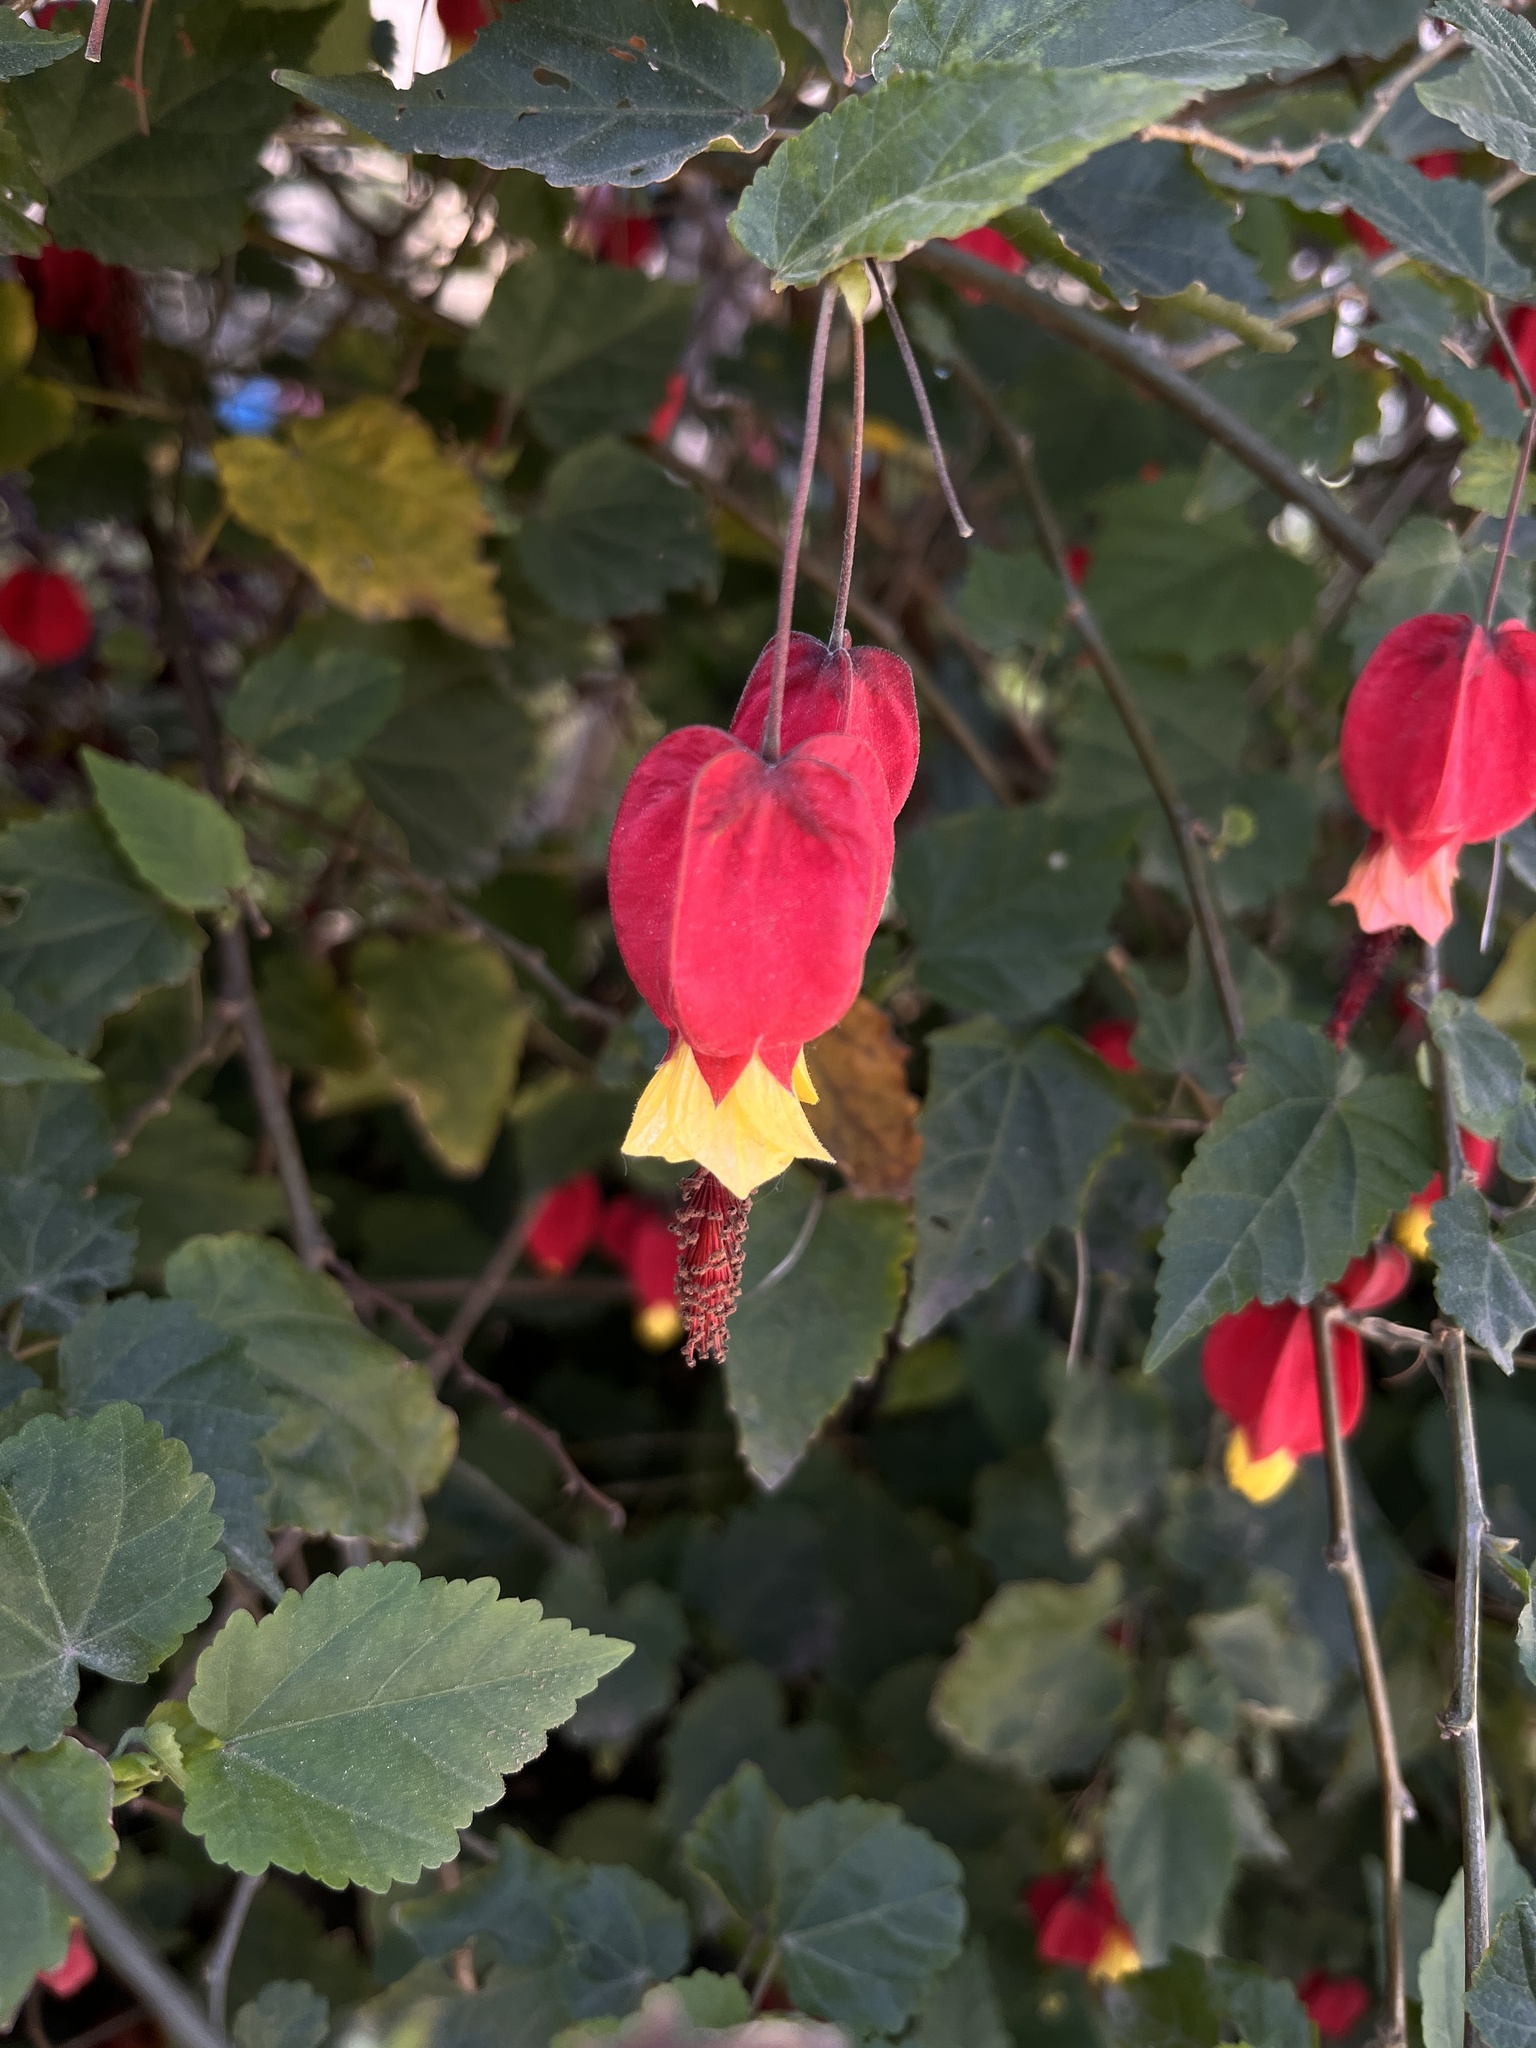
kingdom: Plantae
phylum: Tracheophyta
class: Magnoliopsida
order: Malvales
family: Malvaceae
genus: Callianthe
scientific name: Callianthe megapotamica
